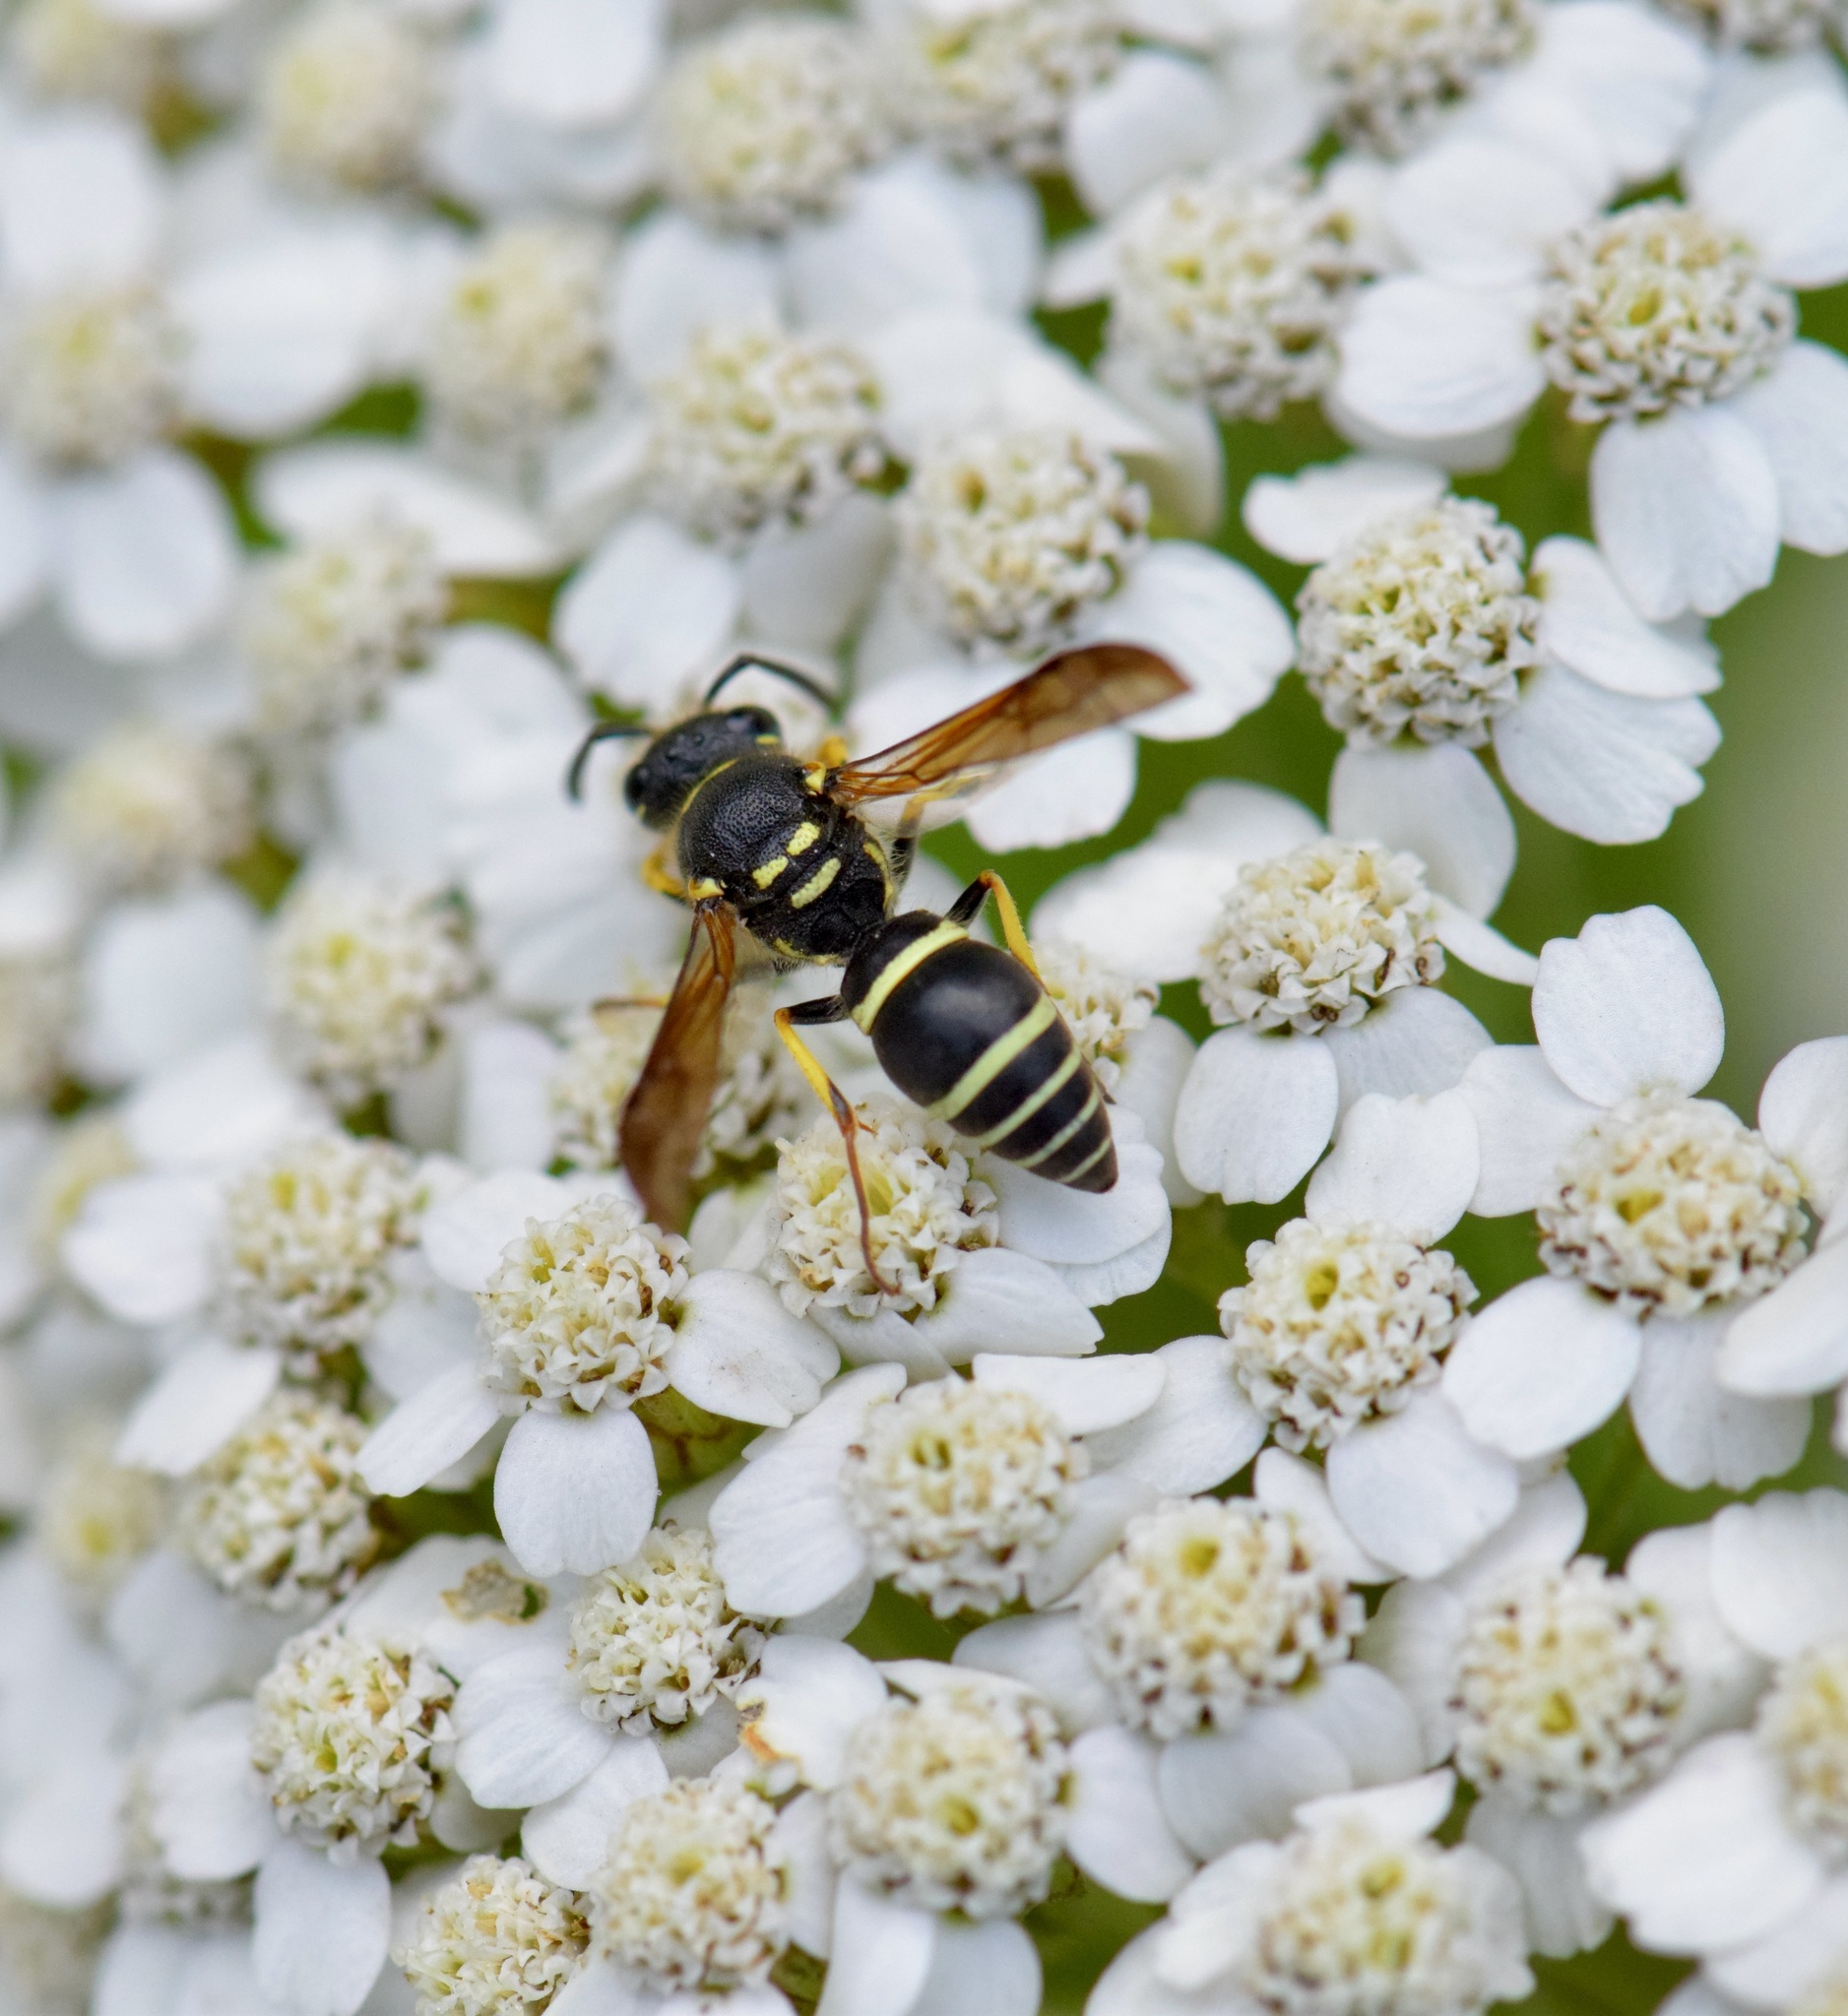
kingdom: Animalia
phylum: Arthropoda
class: Insecta
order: Hymenoptera
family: Vespidae
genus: Ancistrocerus
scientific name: Ancistrocerus catskill
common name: Vespid wasp
